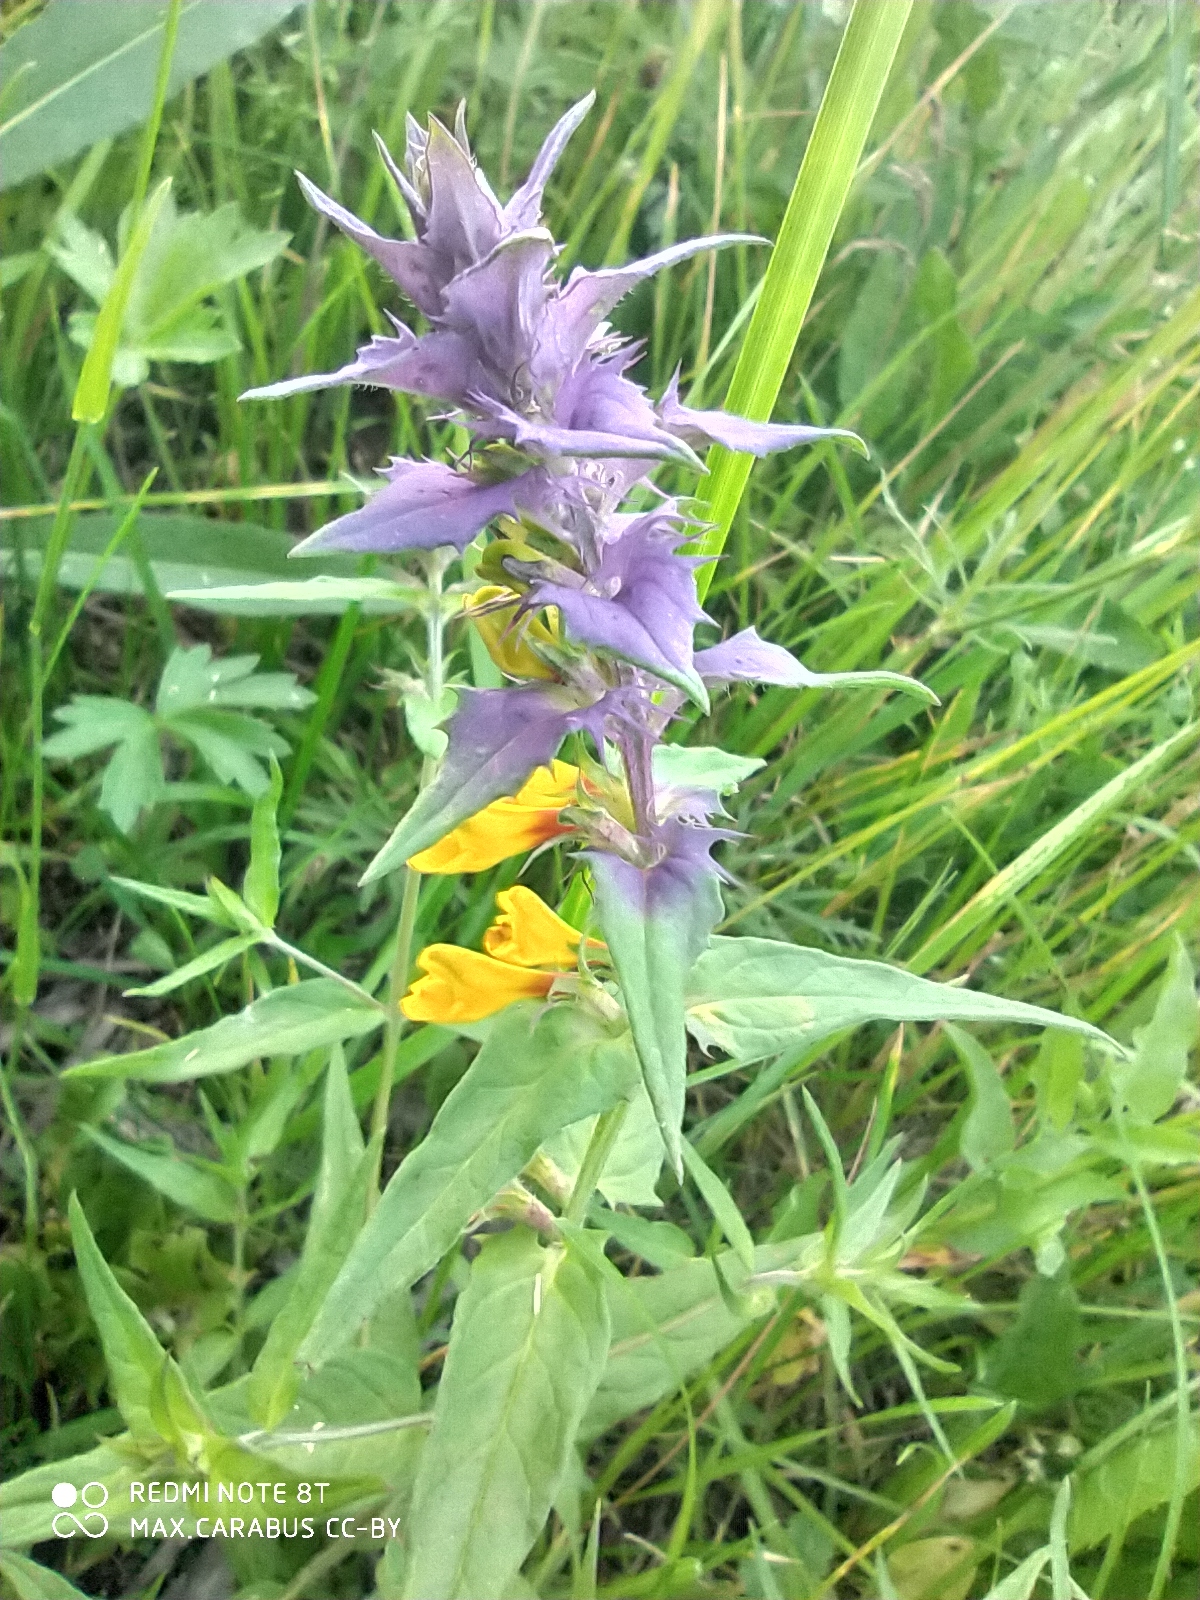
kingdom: Plantae
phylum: Tracheophyta
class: Magnoliopsida
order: Lamiales
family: Orobanchaceae
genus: Melampyrum
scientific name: Melampyrum nemorosum
